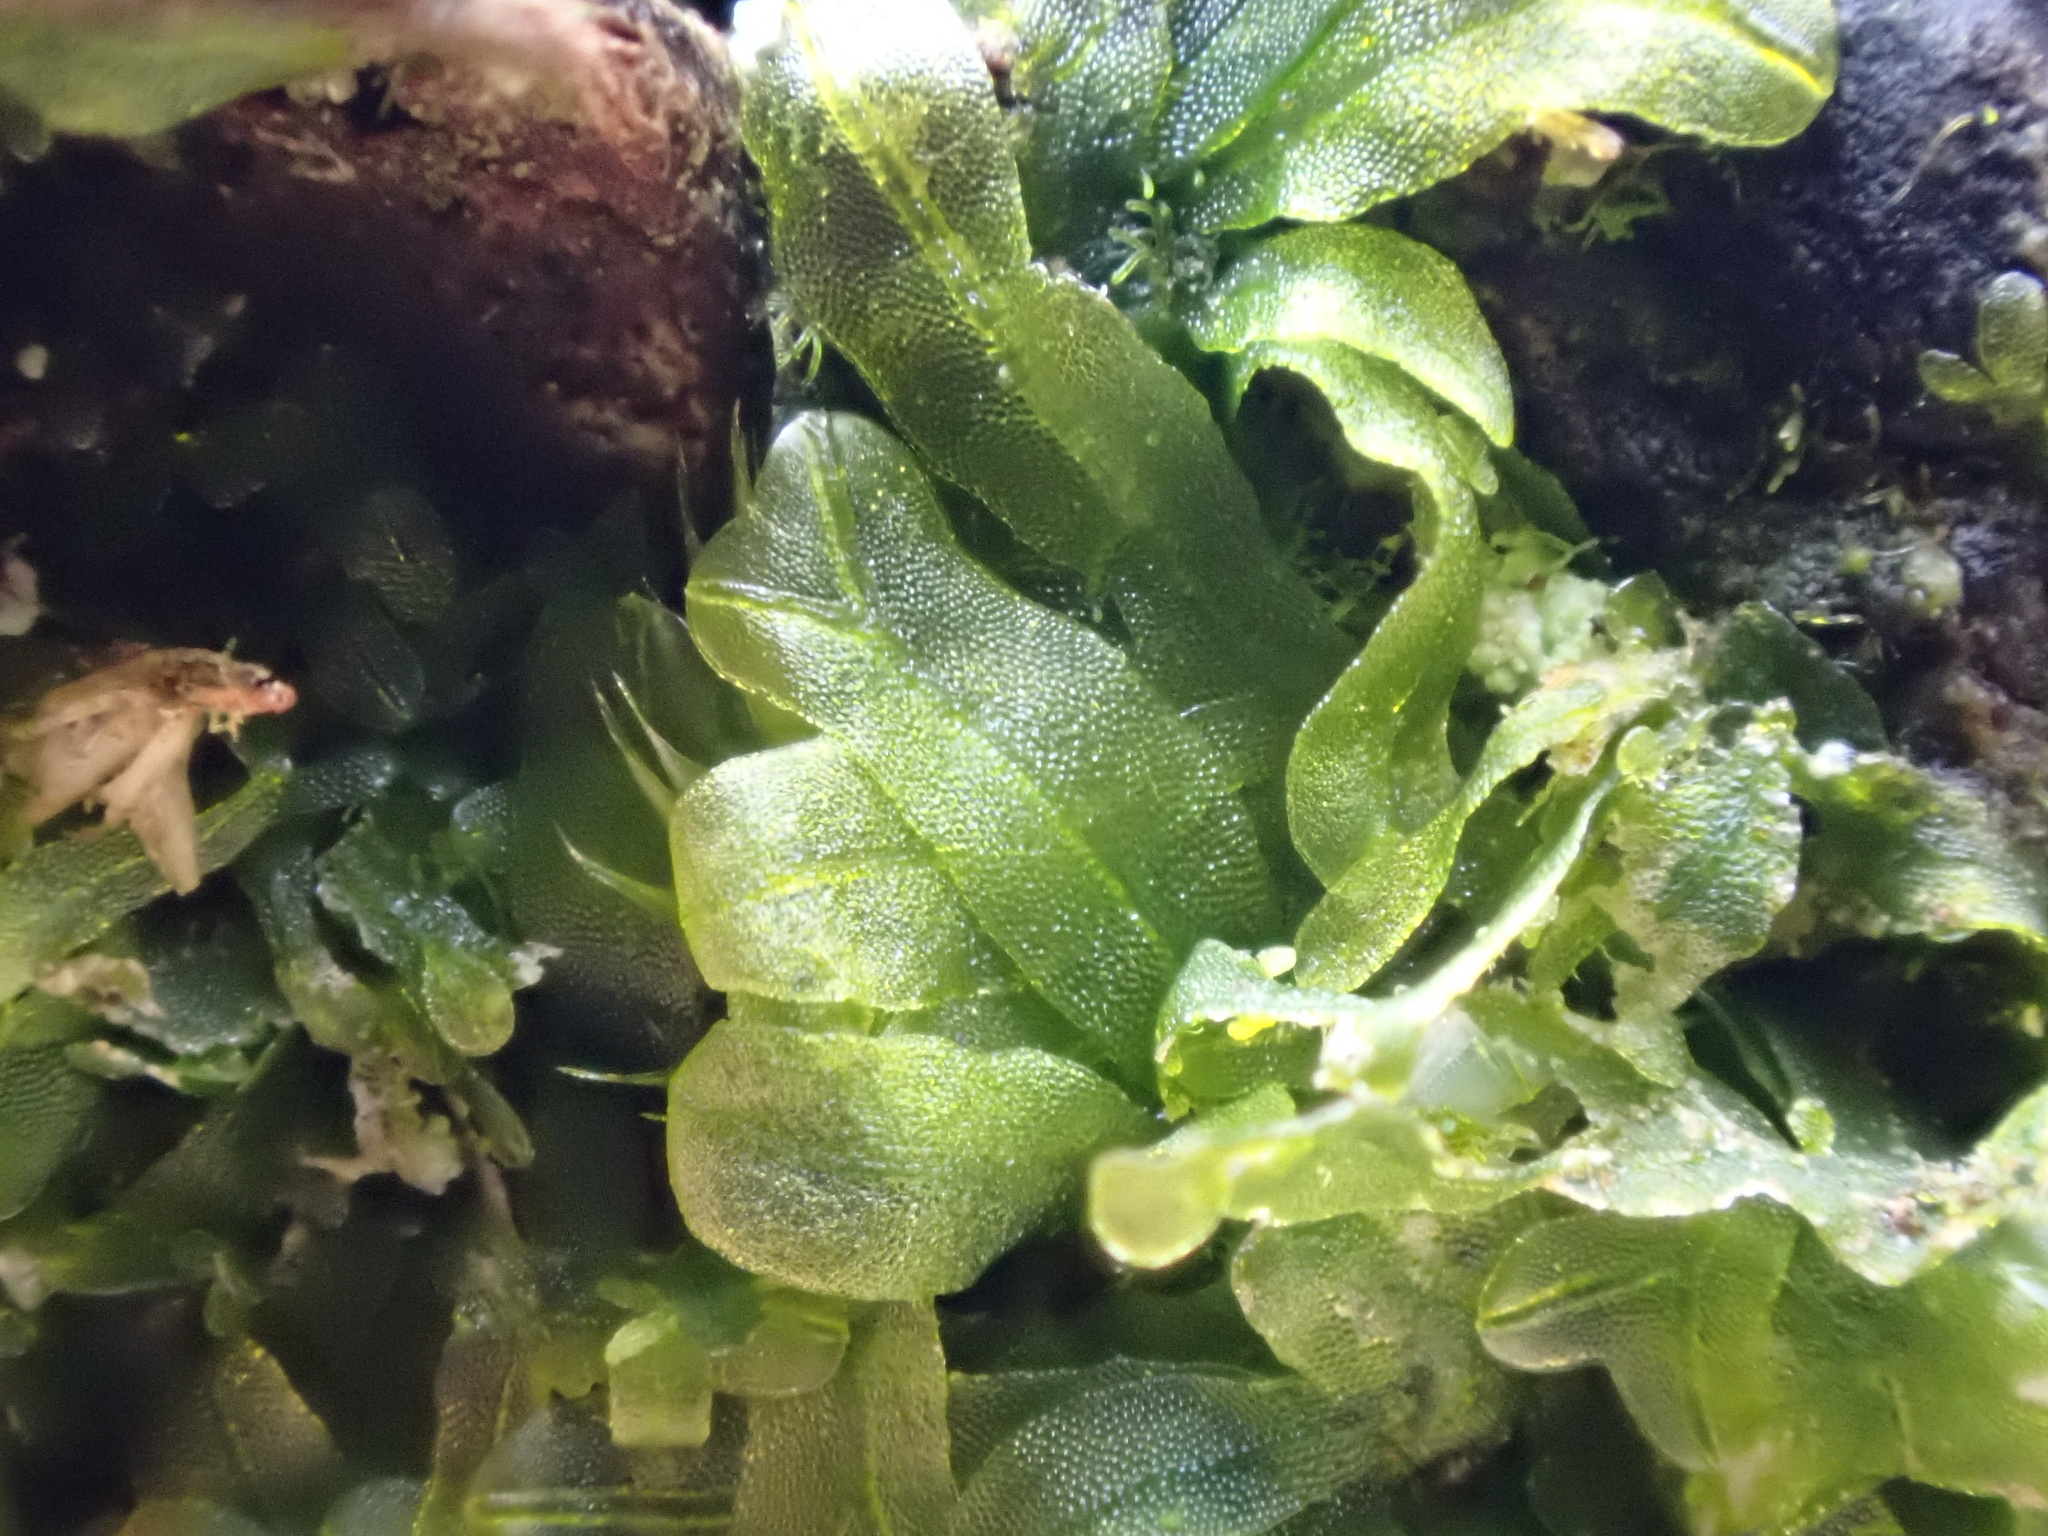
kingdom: Plantae
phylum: Marchantiophyta
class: Jungermanniopsida
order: Metzgeriales
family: Metzgeriaceae
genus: Metzgeria
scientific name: Metzgeria furcata
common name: Forked veilwort
